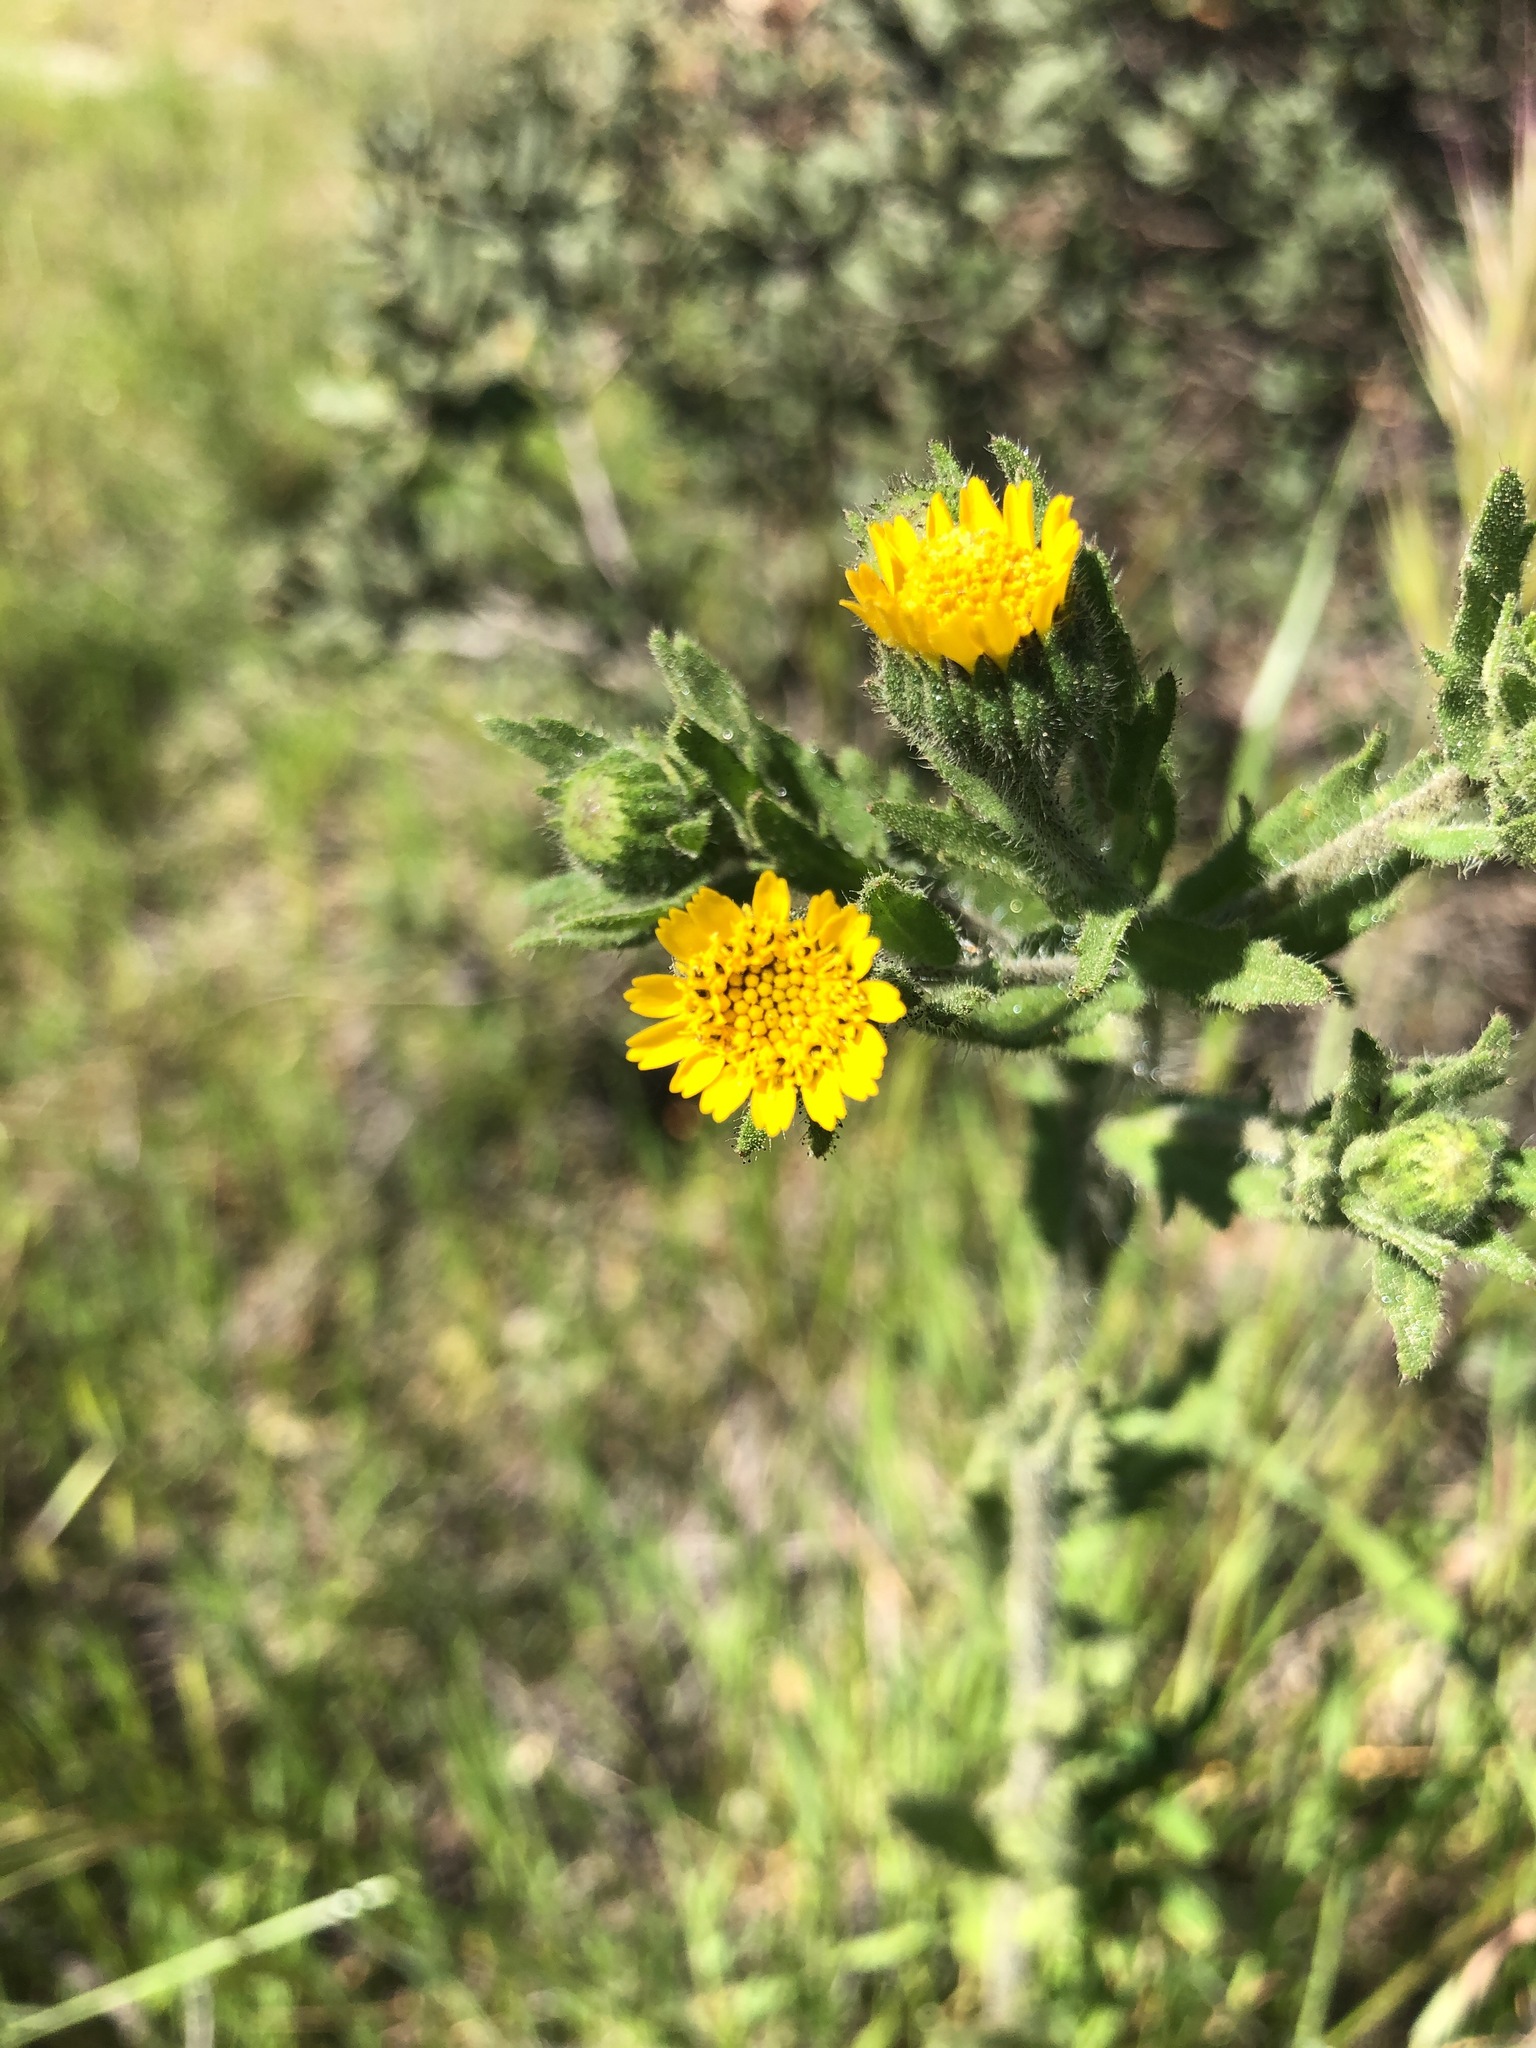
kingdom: Plantae
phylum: Tracheophyta
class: Magnoliopsida
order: Asterales
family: Asteraceae
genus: Layia
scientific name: Layia hieracioides
